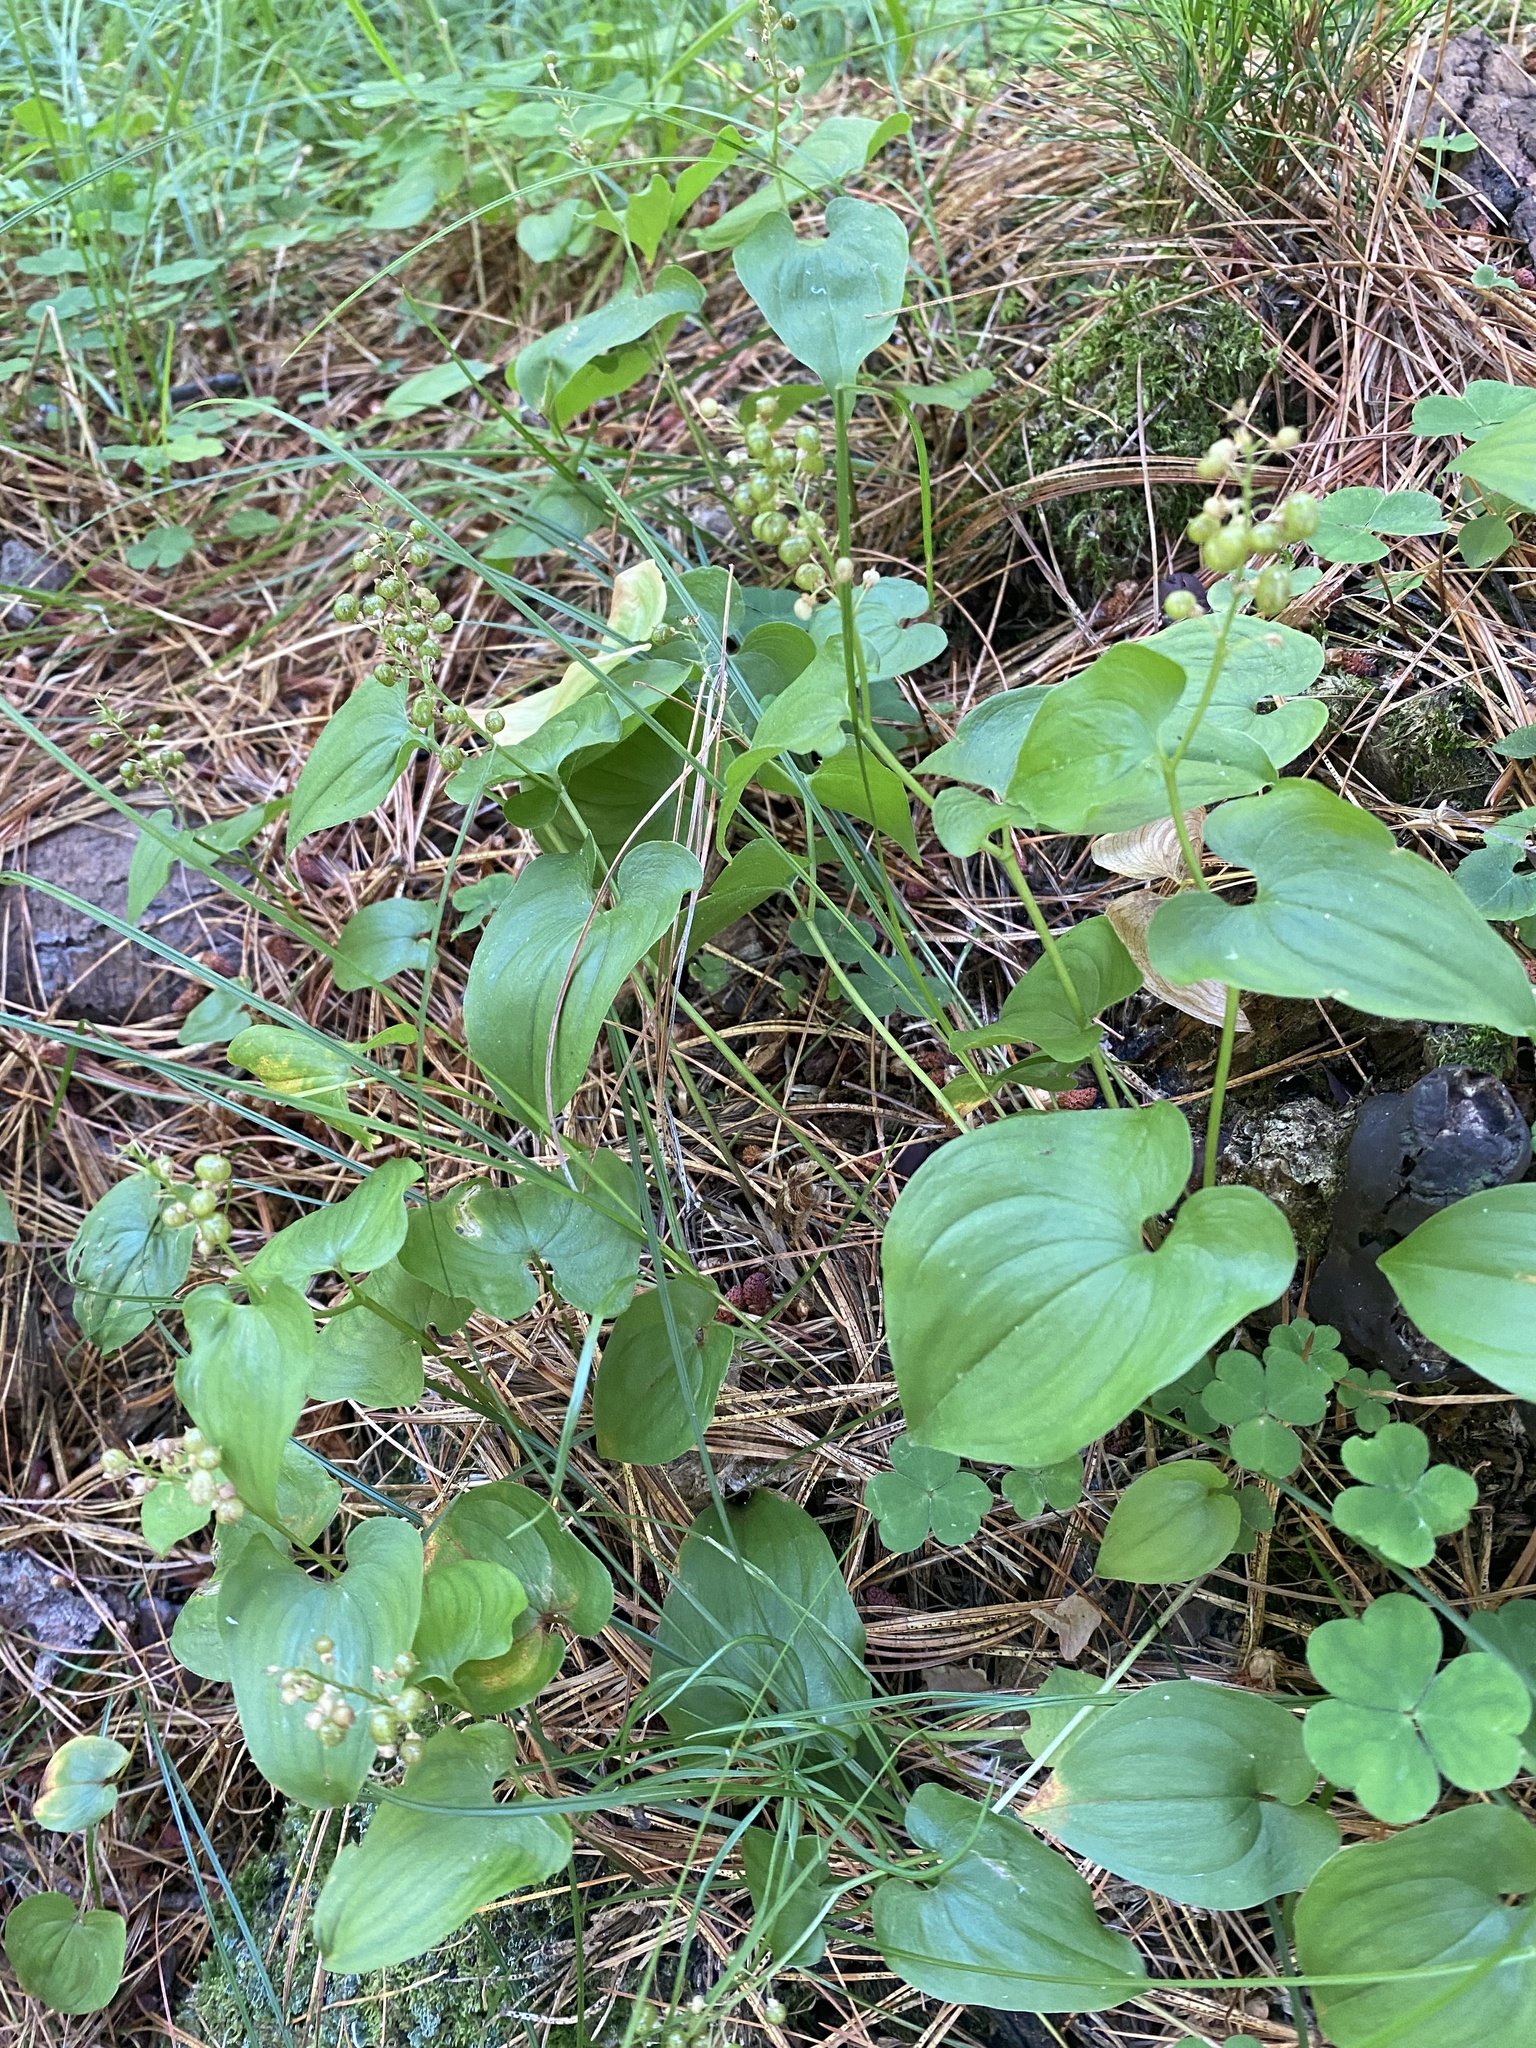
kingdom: Plantae
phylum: Tracheophyta
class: Liliopsida
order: Asparagales
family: Asparagaceae
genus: Maianthemum
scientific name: Maianthemum bifolium
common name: May lily
